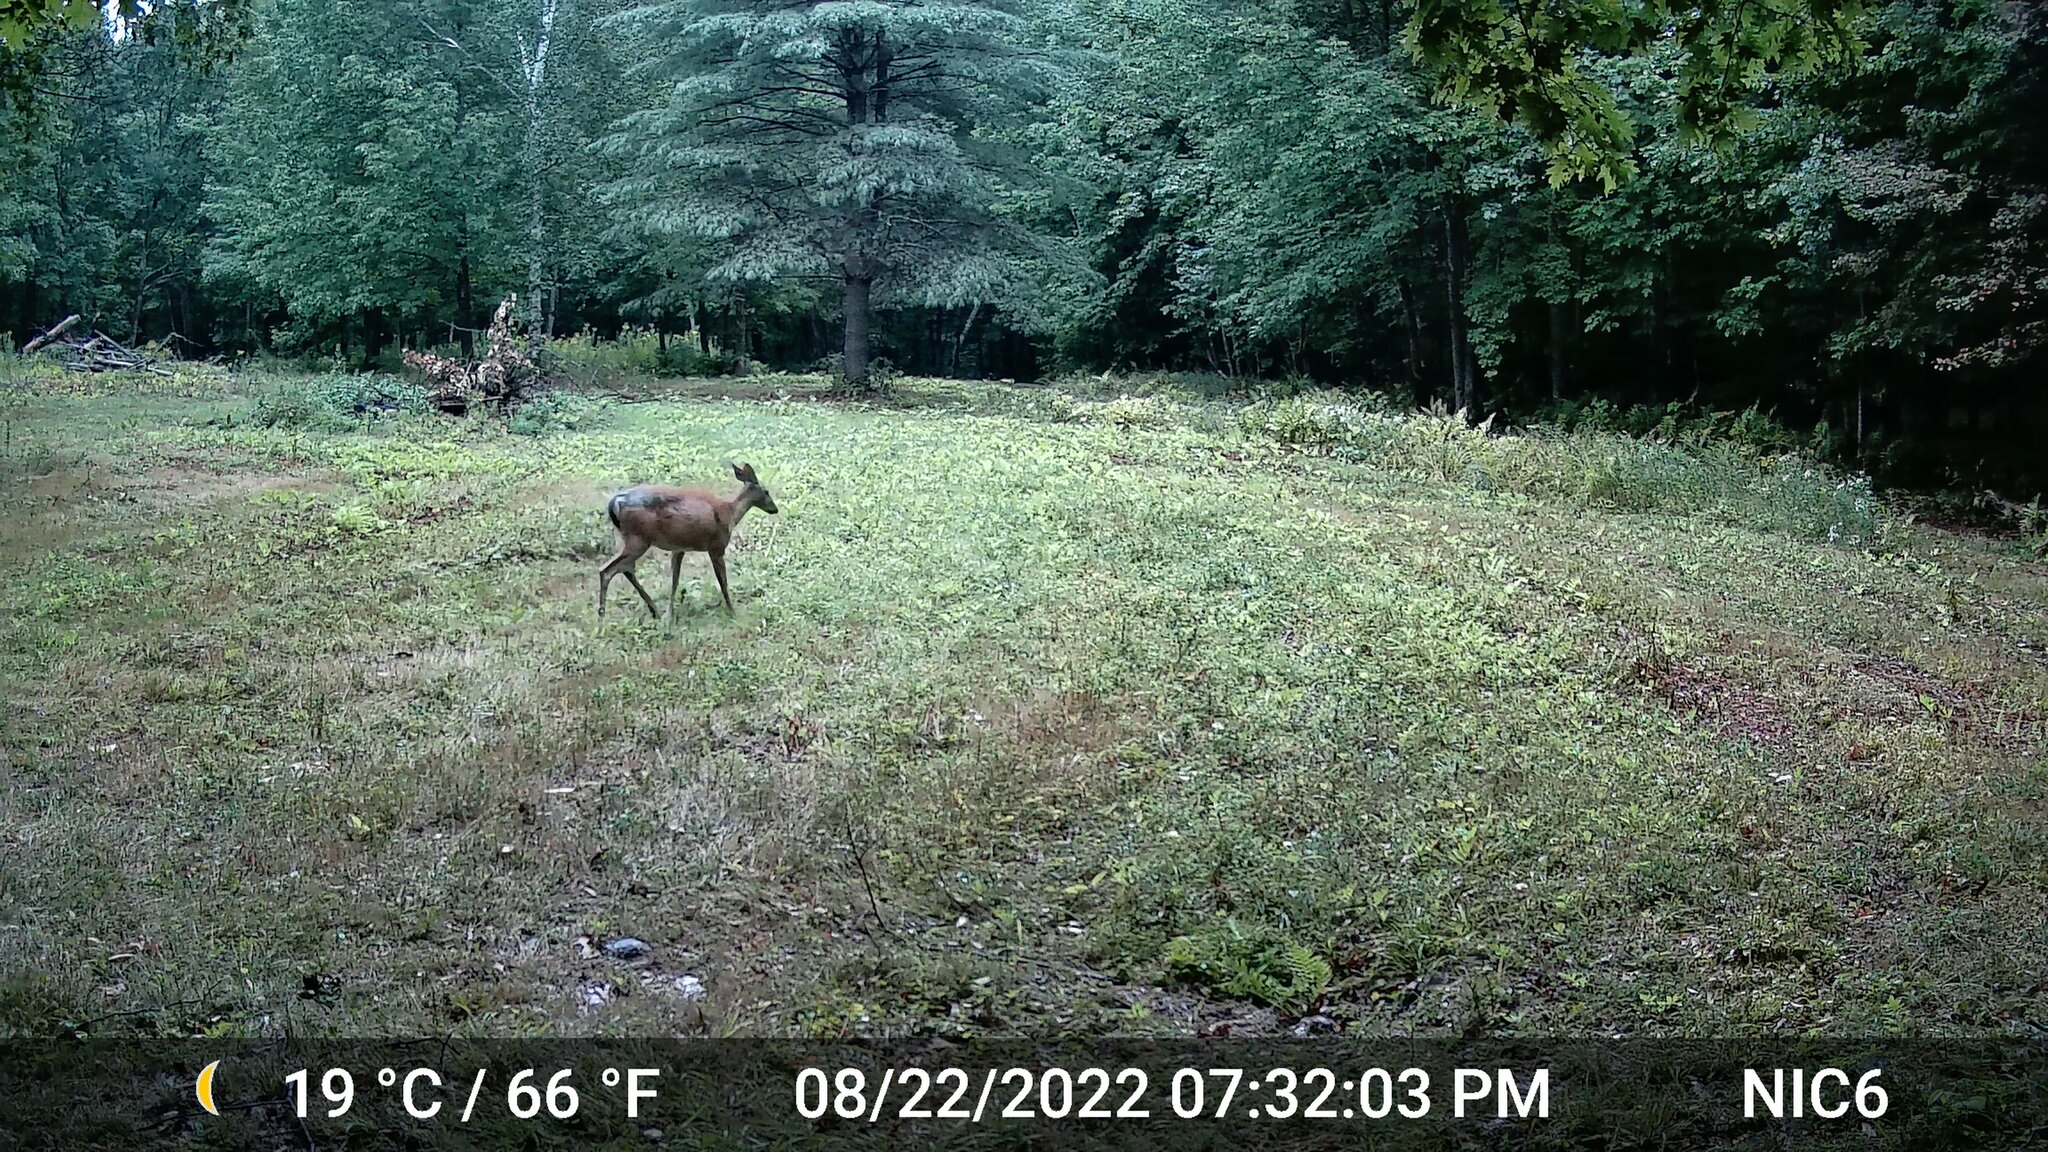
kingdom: Animalia
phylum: Chordata
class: Mammalia
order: Artiodactyla
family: Cervidae
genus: Odocoileus
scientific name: Odocoileus virginianus
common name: White-tailed deer
